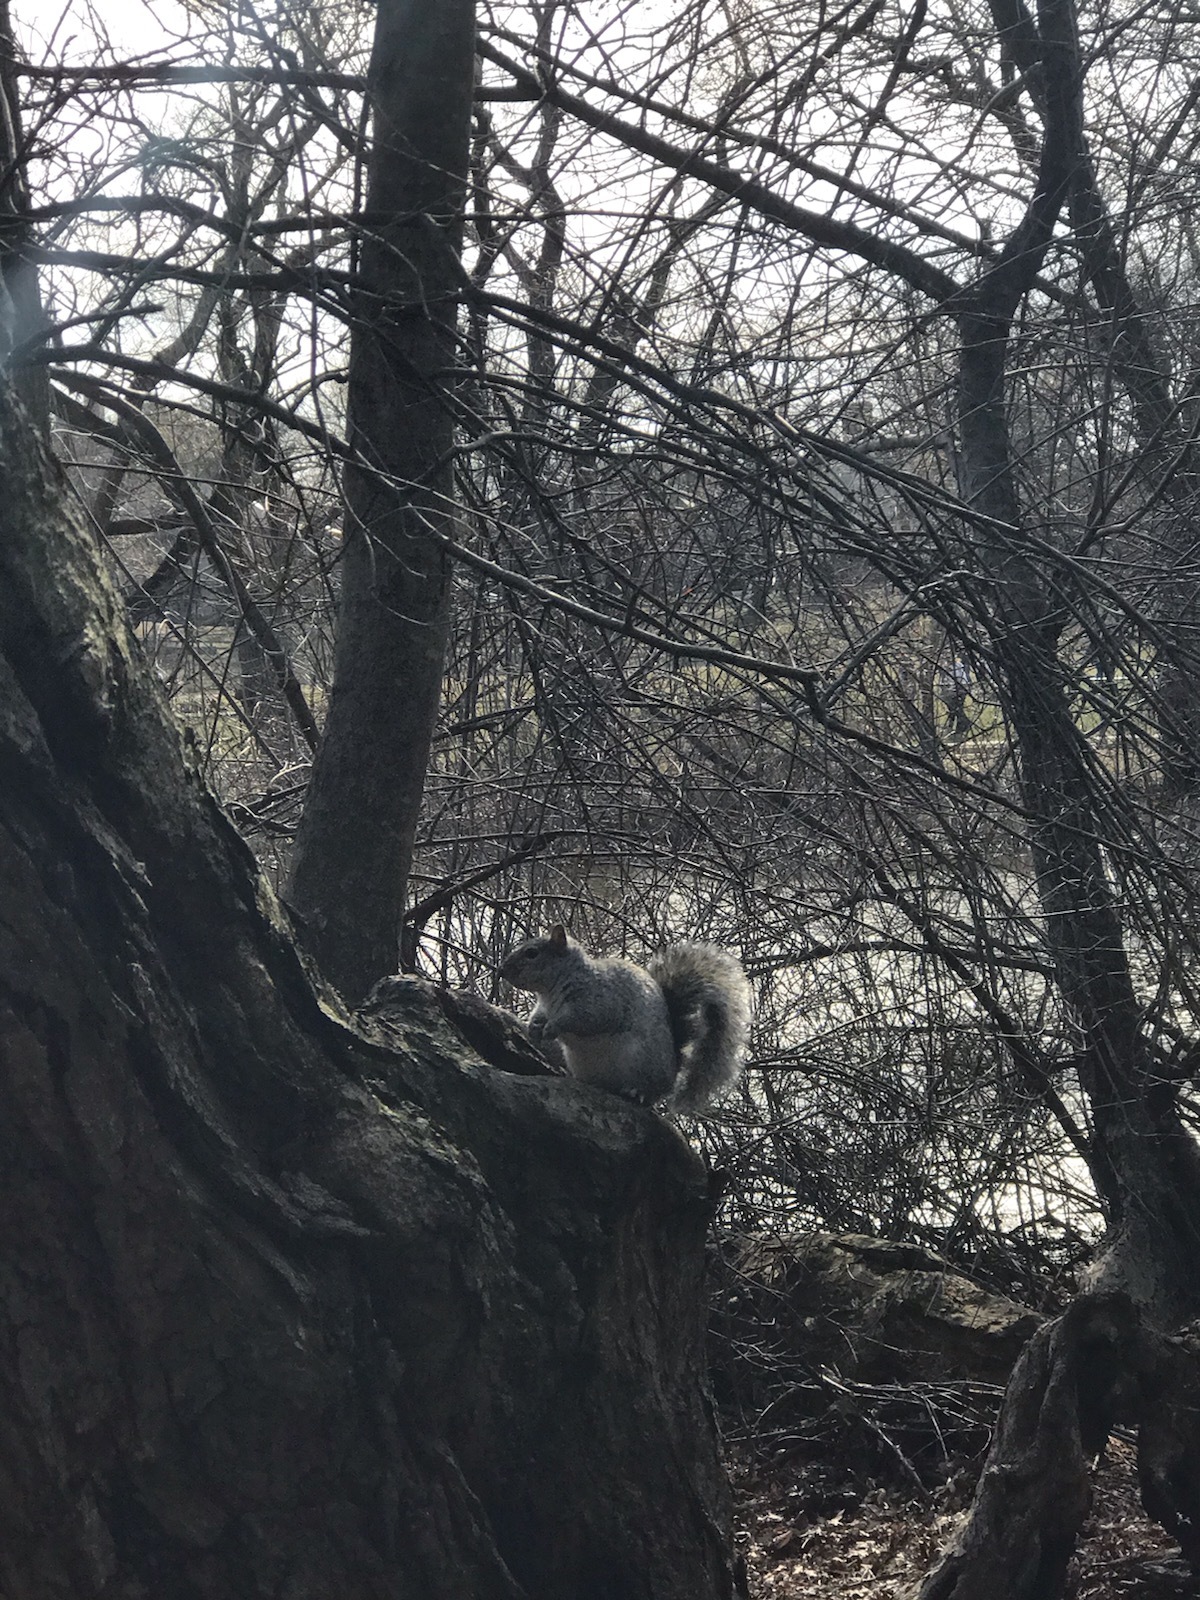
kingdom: Animalia
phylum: Chordata
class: Mammalia
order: Rodentia
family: Sciuridae
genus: Sciurus
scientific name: Sciurus carolinensis
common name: Eastern gray squirrel
